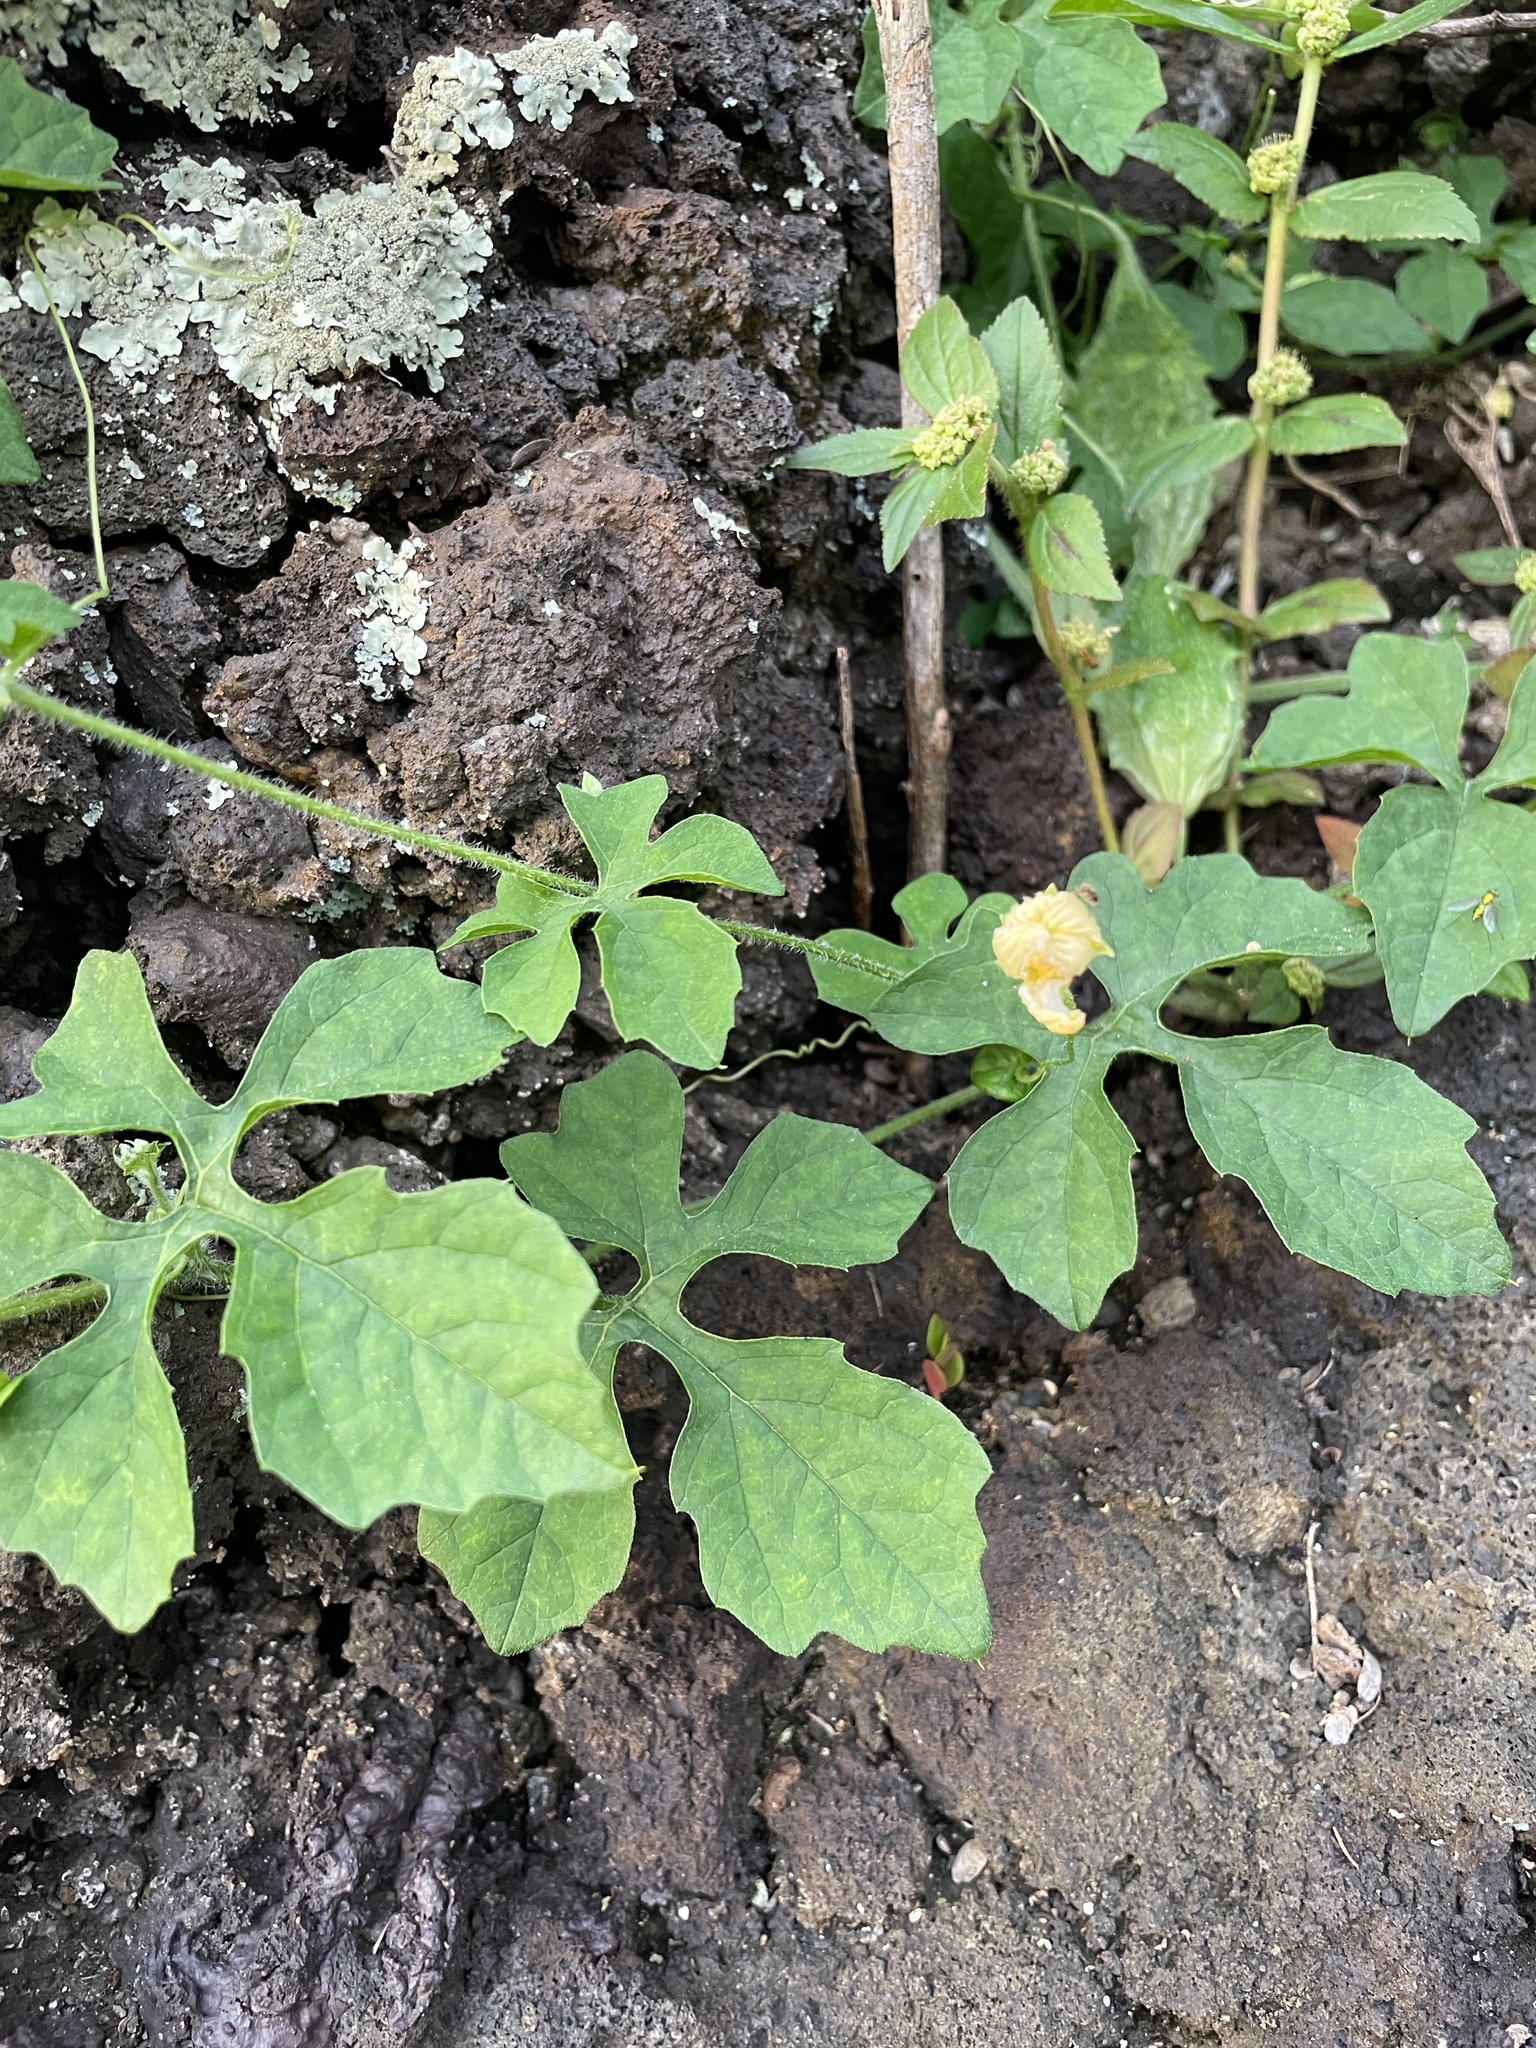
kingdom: Plantae
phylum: Tracheophyta
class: Magnoliopsida
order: Cucurbitales
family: Cucurbitaceae
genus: Momordica
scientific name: Momordica charantia
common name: Balsampear
